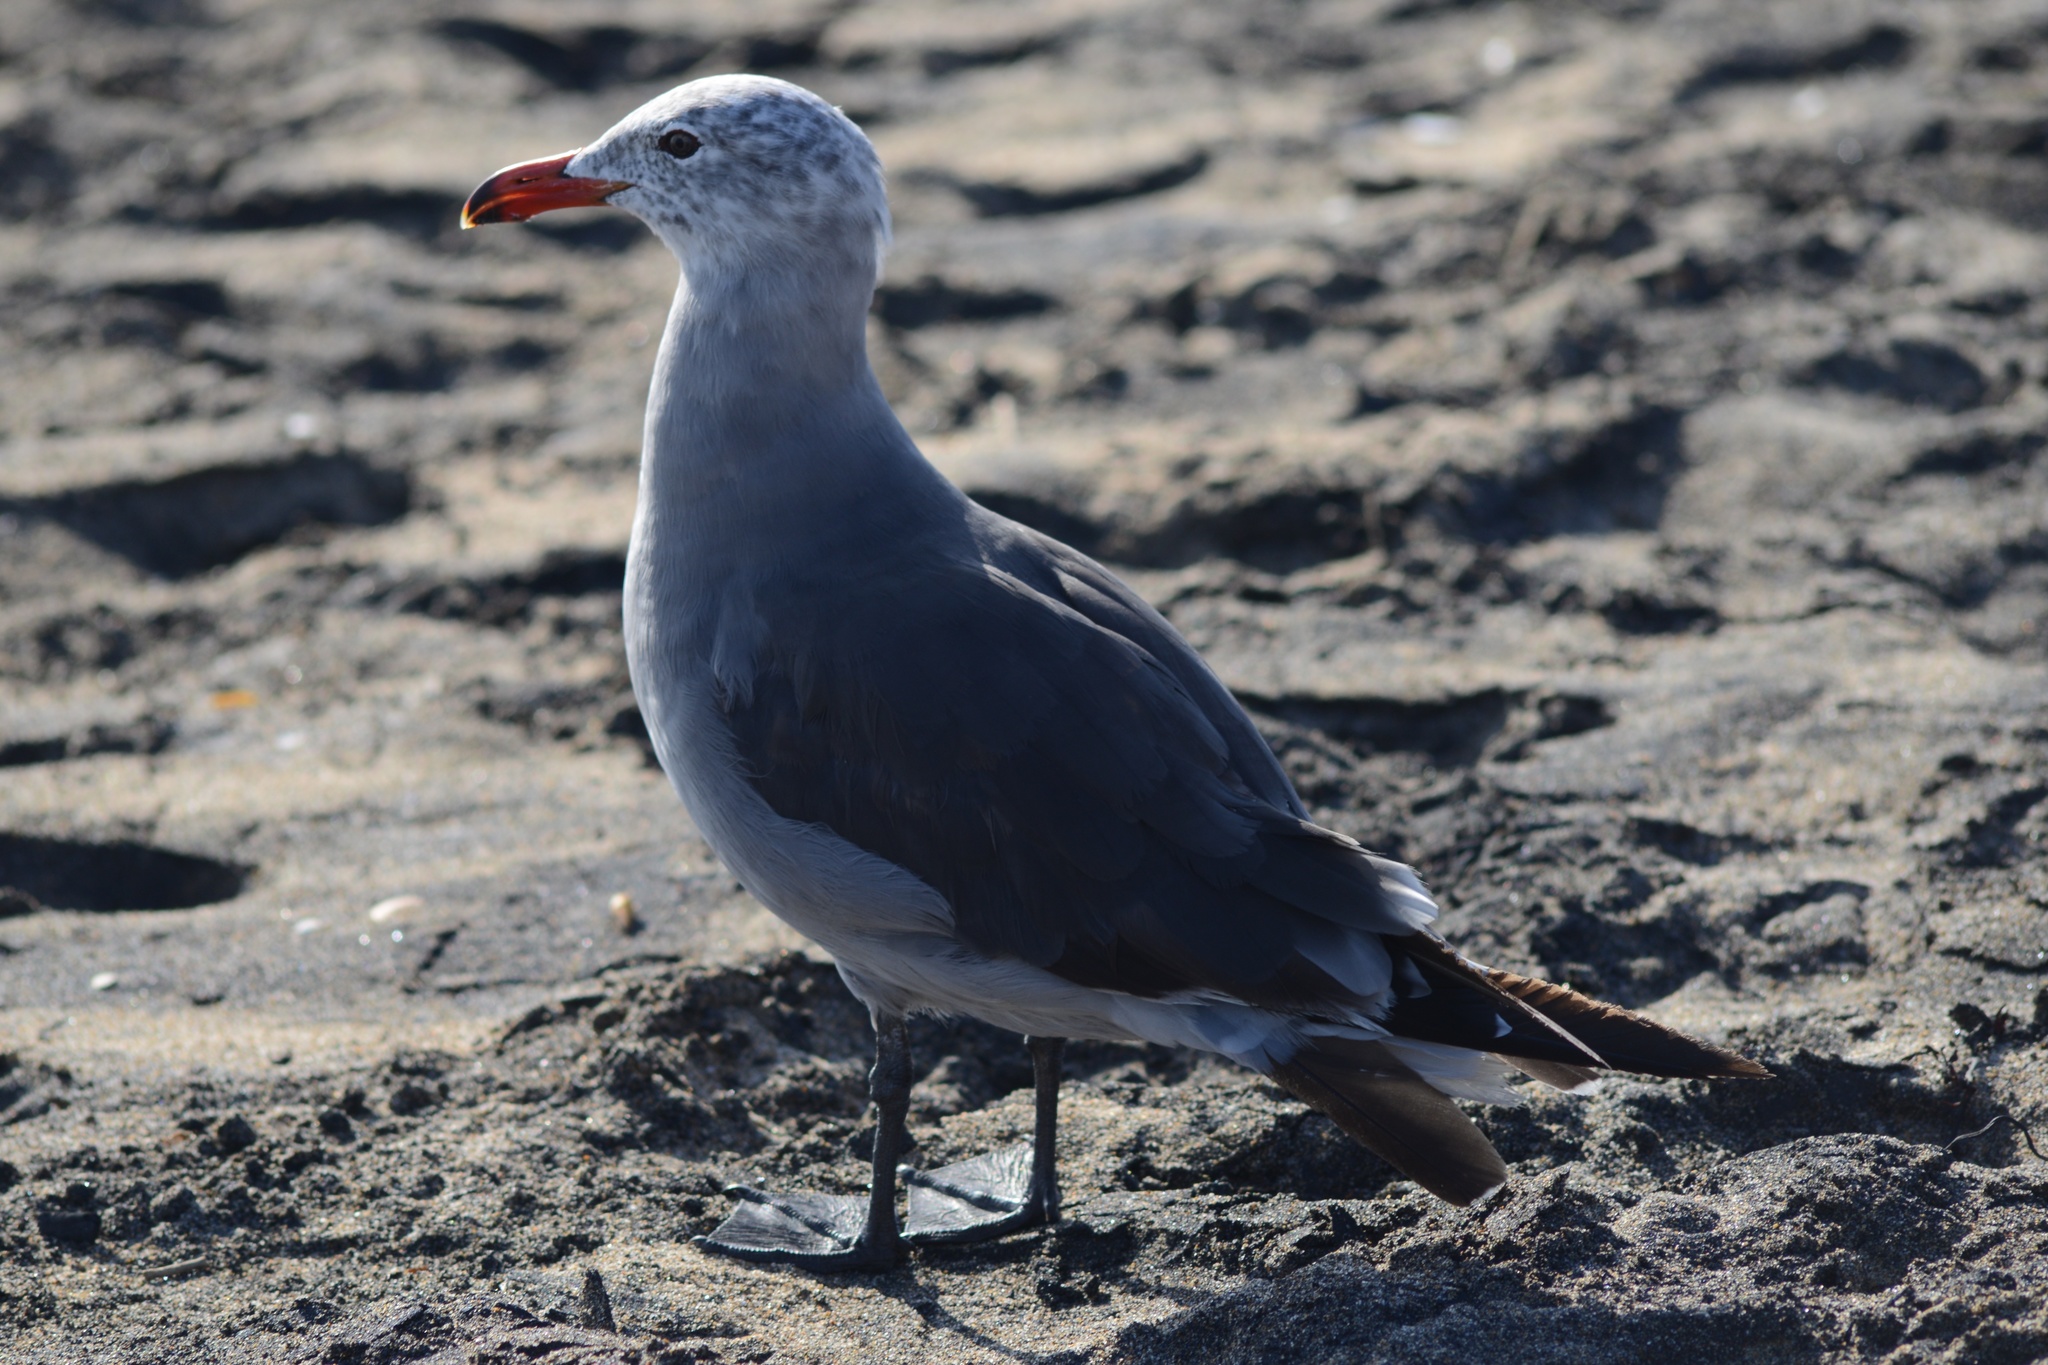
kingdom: Animalia
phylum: Chordata
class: Aves
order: Charadriiformes
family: Laridae
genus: Larus
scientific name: Larus heermanni
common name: Heermann's gull
